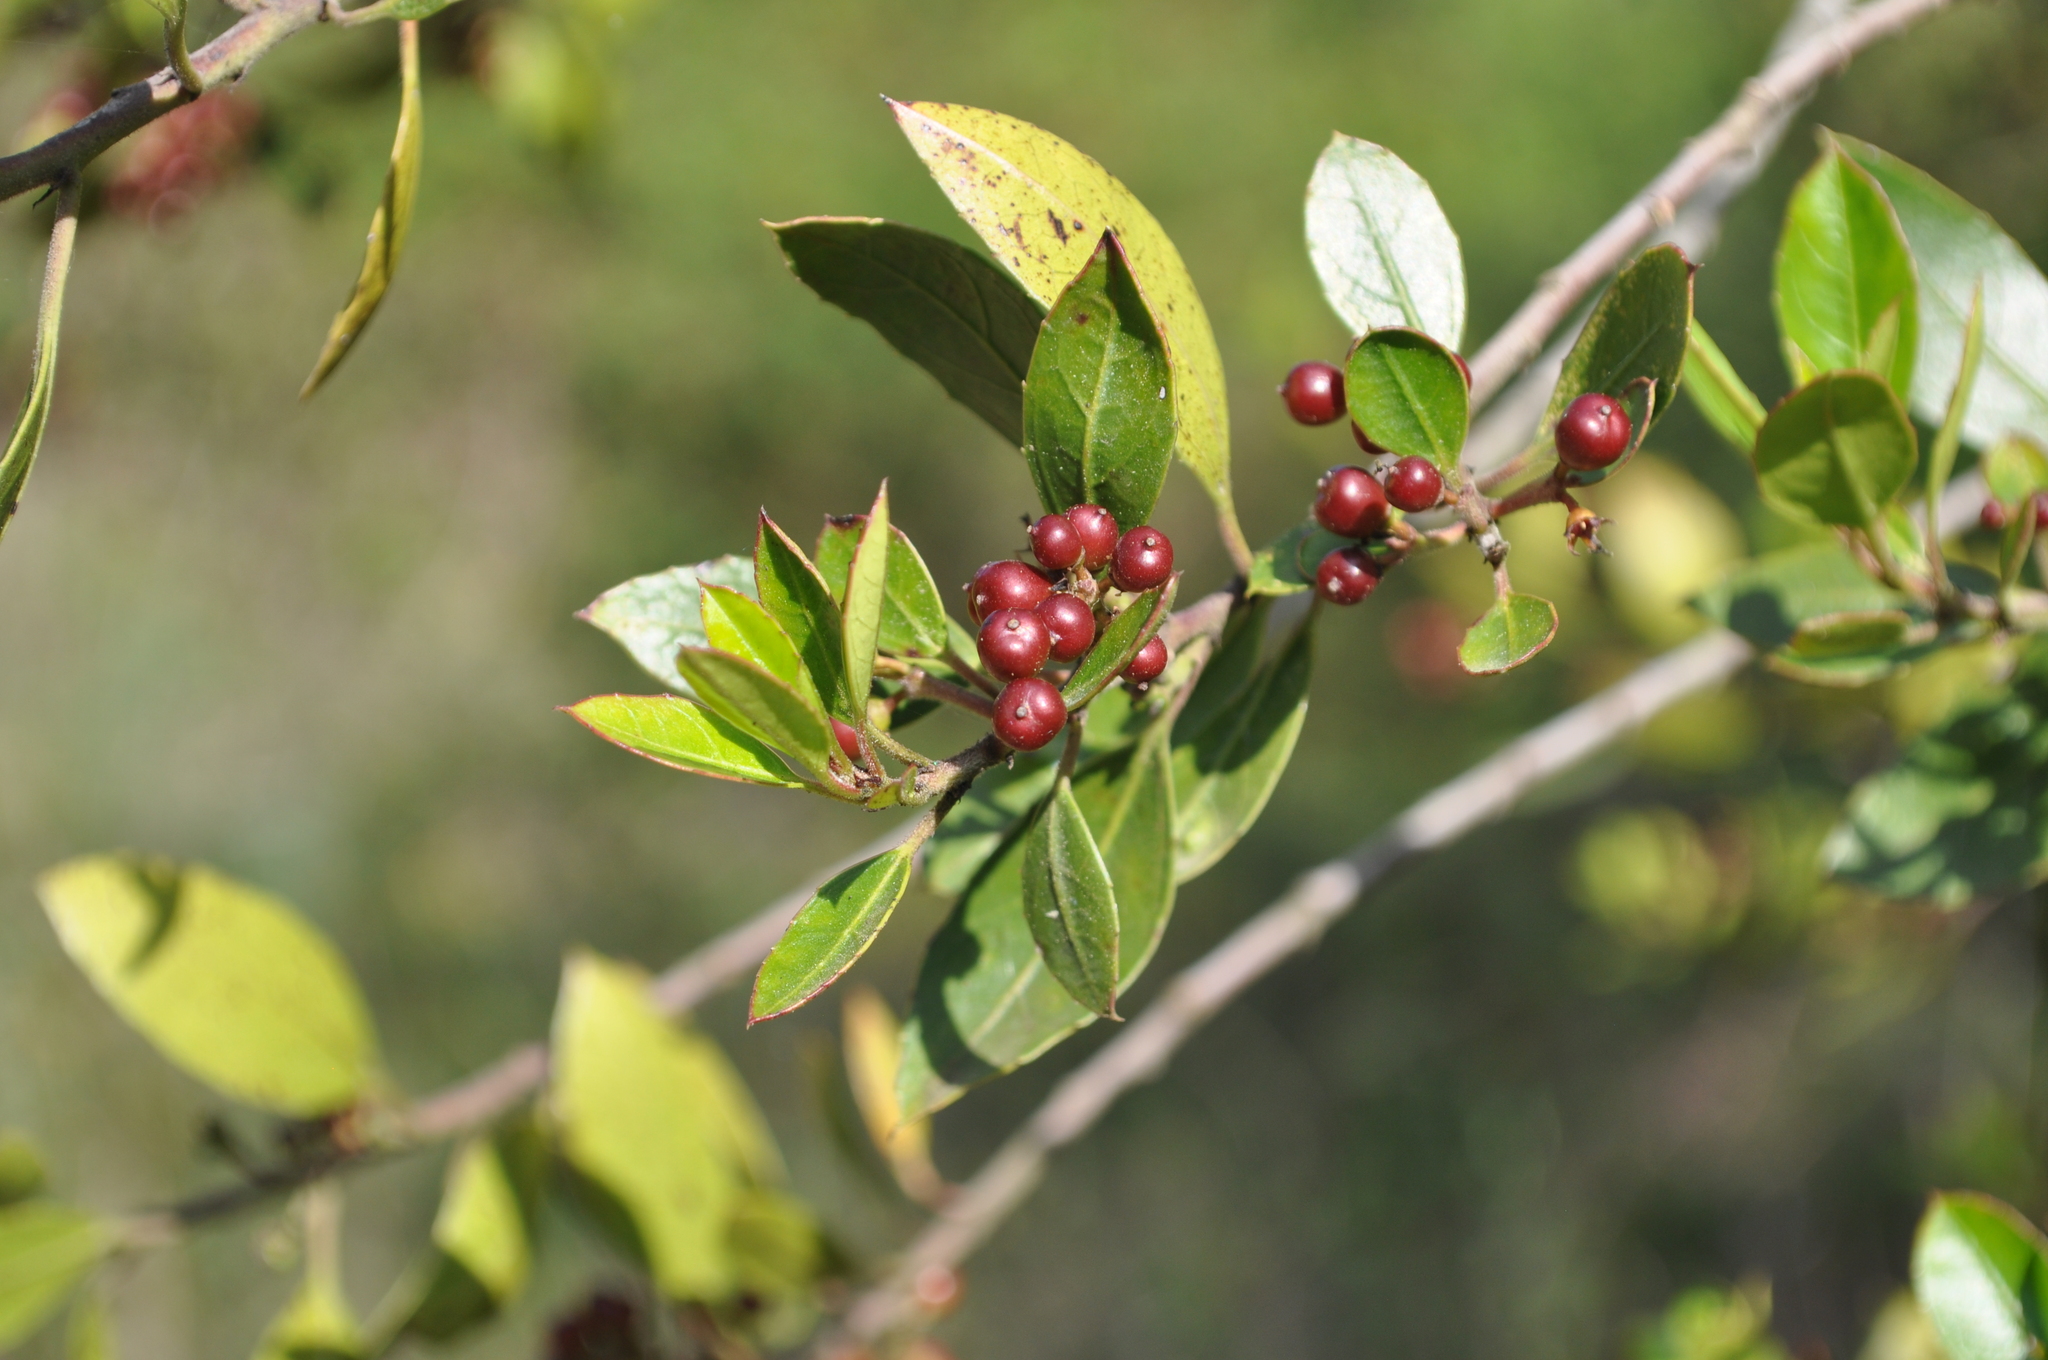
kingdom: Plantae
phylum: Tracheophyta
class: Magnoliopsida
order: Rosales
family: Rhamnaceae
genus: Rhamnus
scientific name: Rhamnus alaternus
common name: Mediterranean buckthorn
